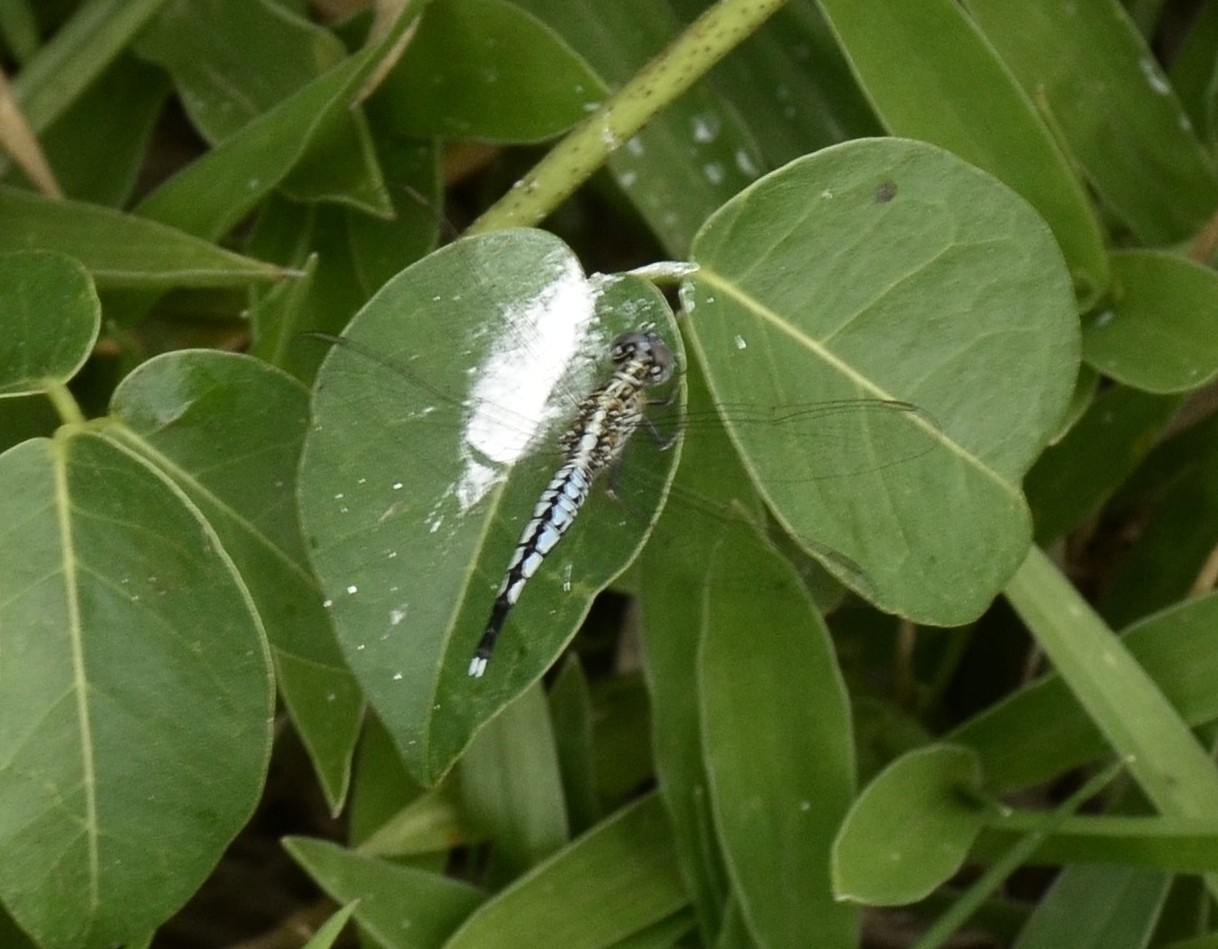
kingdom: Animalia
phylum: Arthropoda
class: Insecta
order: Odonata
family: Libellulidae
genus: Acisoma
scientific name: Acisoma panorpoides
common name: Asian pintail
